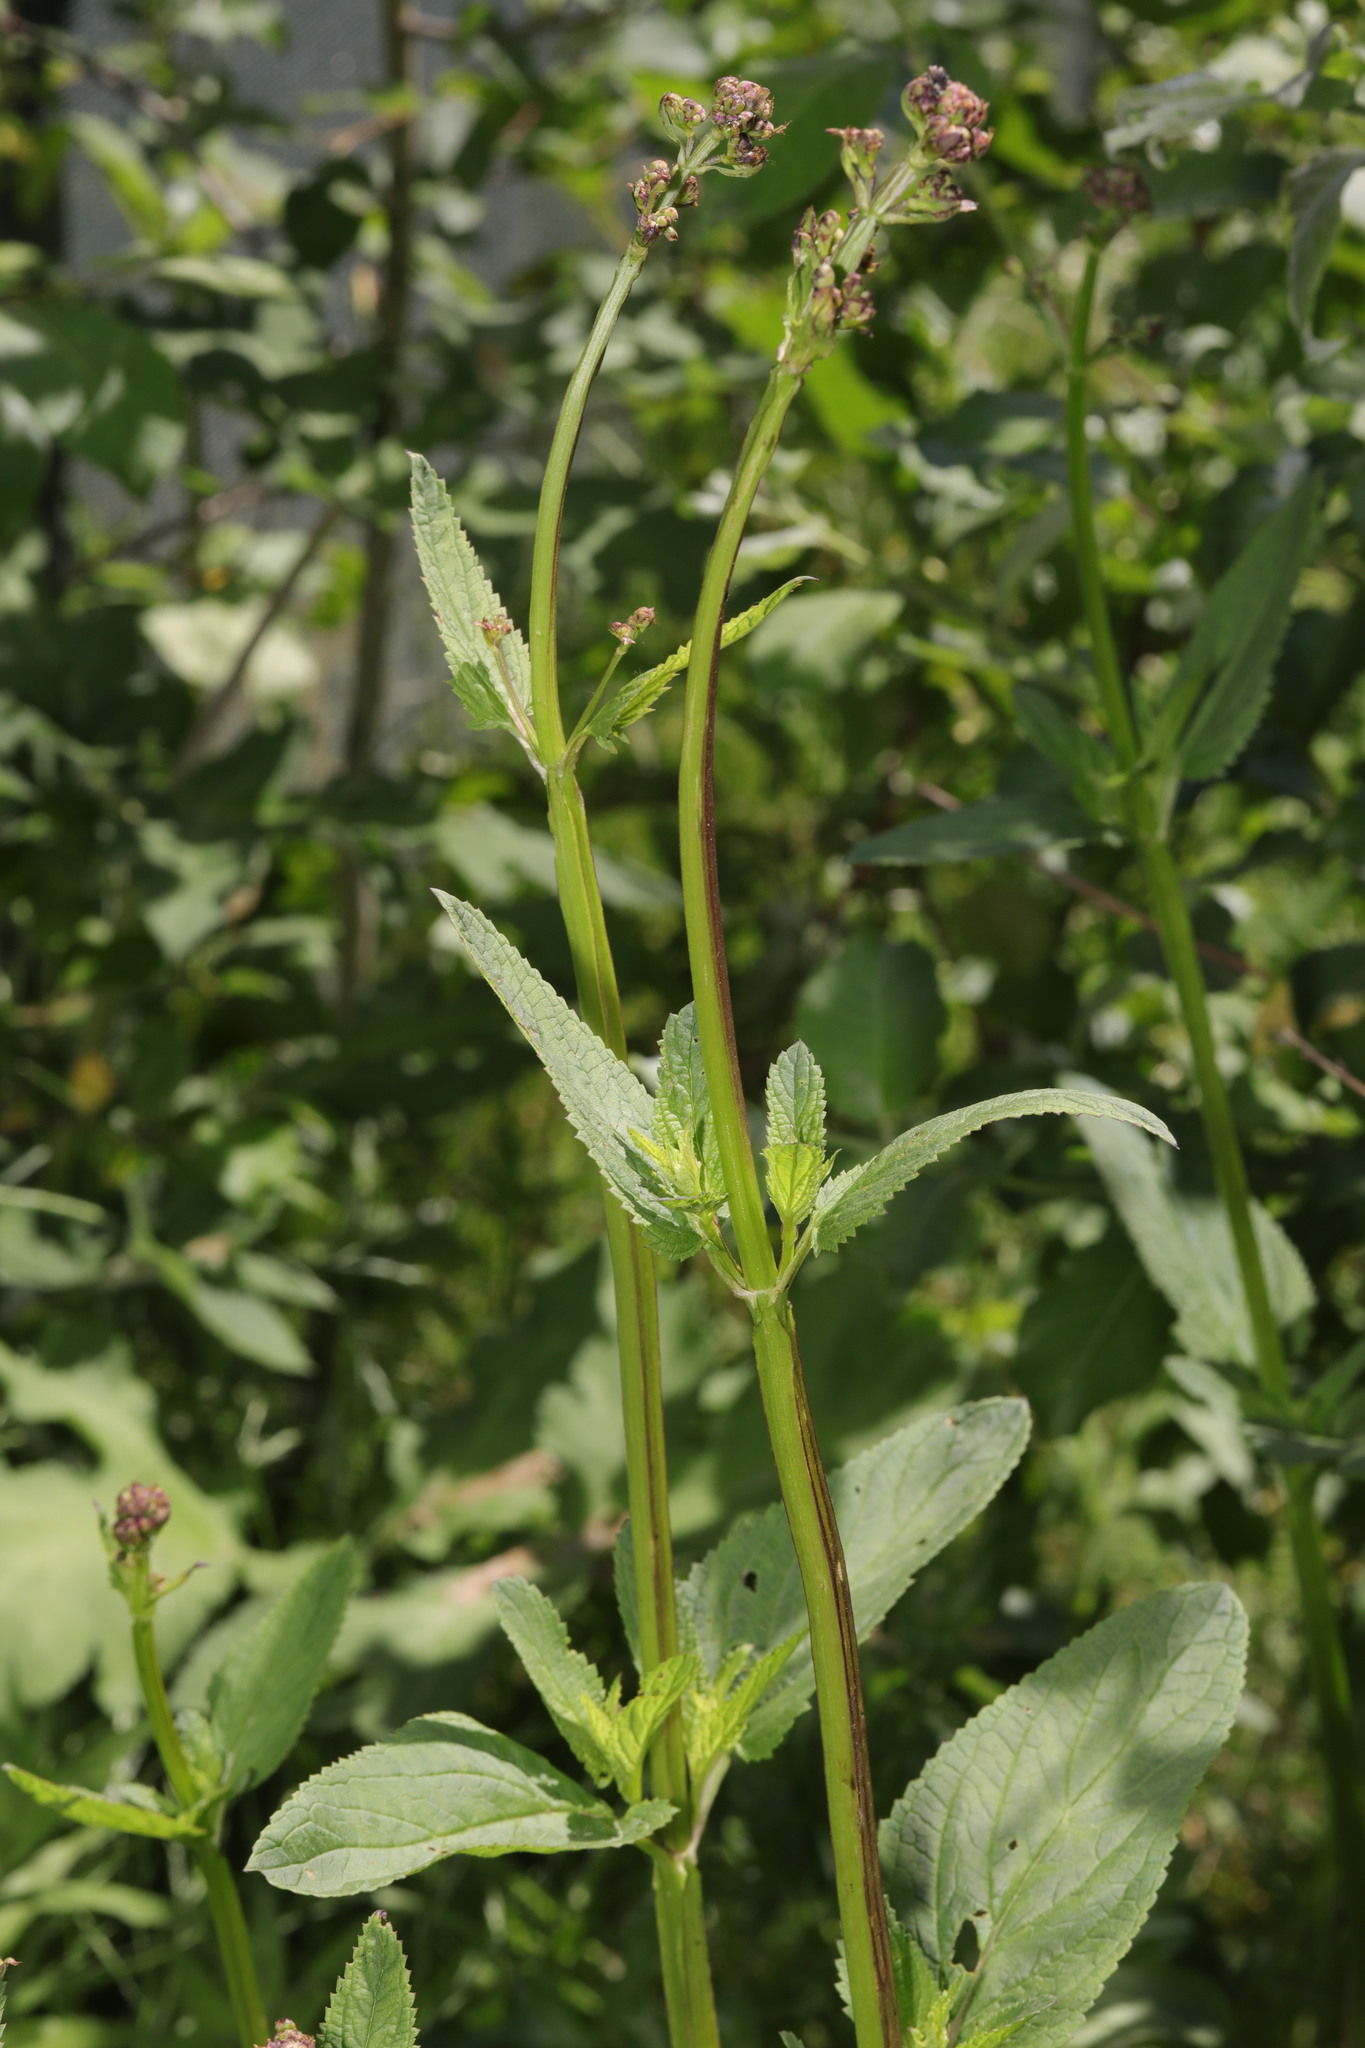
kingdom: Plantae
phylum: Tracheophyta
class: Magnoliopsida
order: Lamiales
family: Scrophulariaceae
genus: Scrophularia
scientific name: Scrophularia auriculata
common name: Water betony
